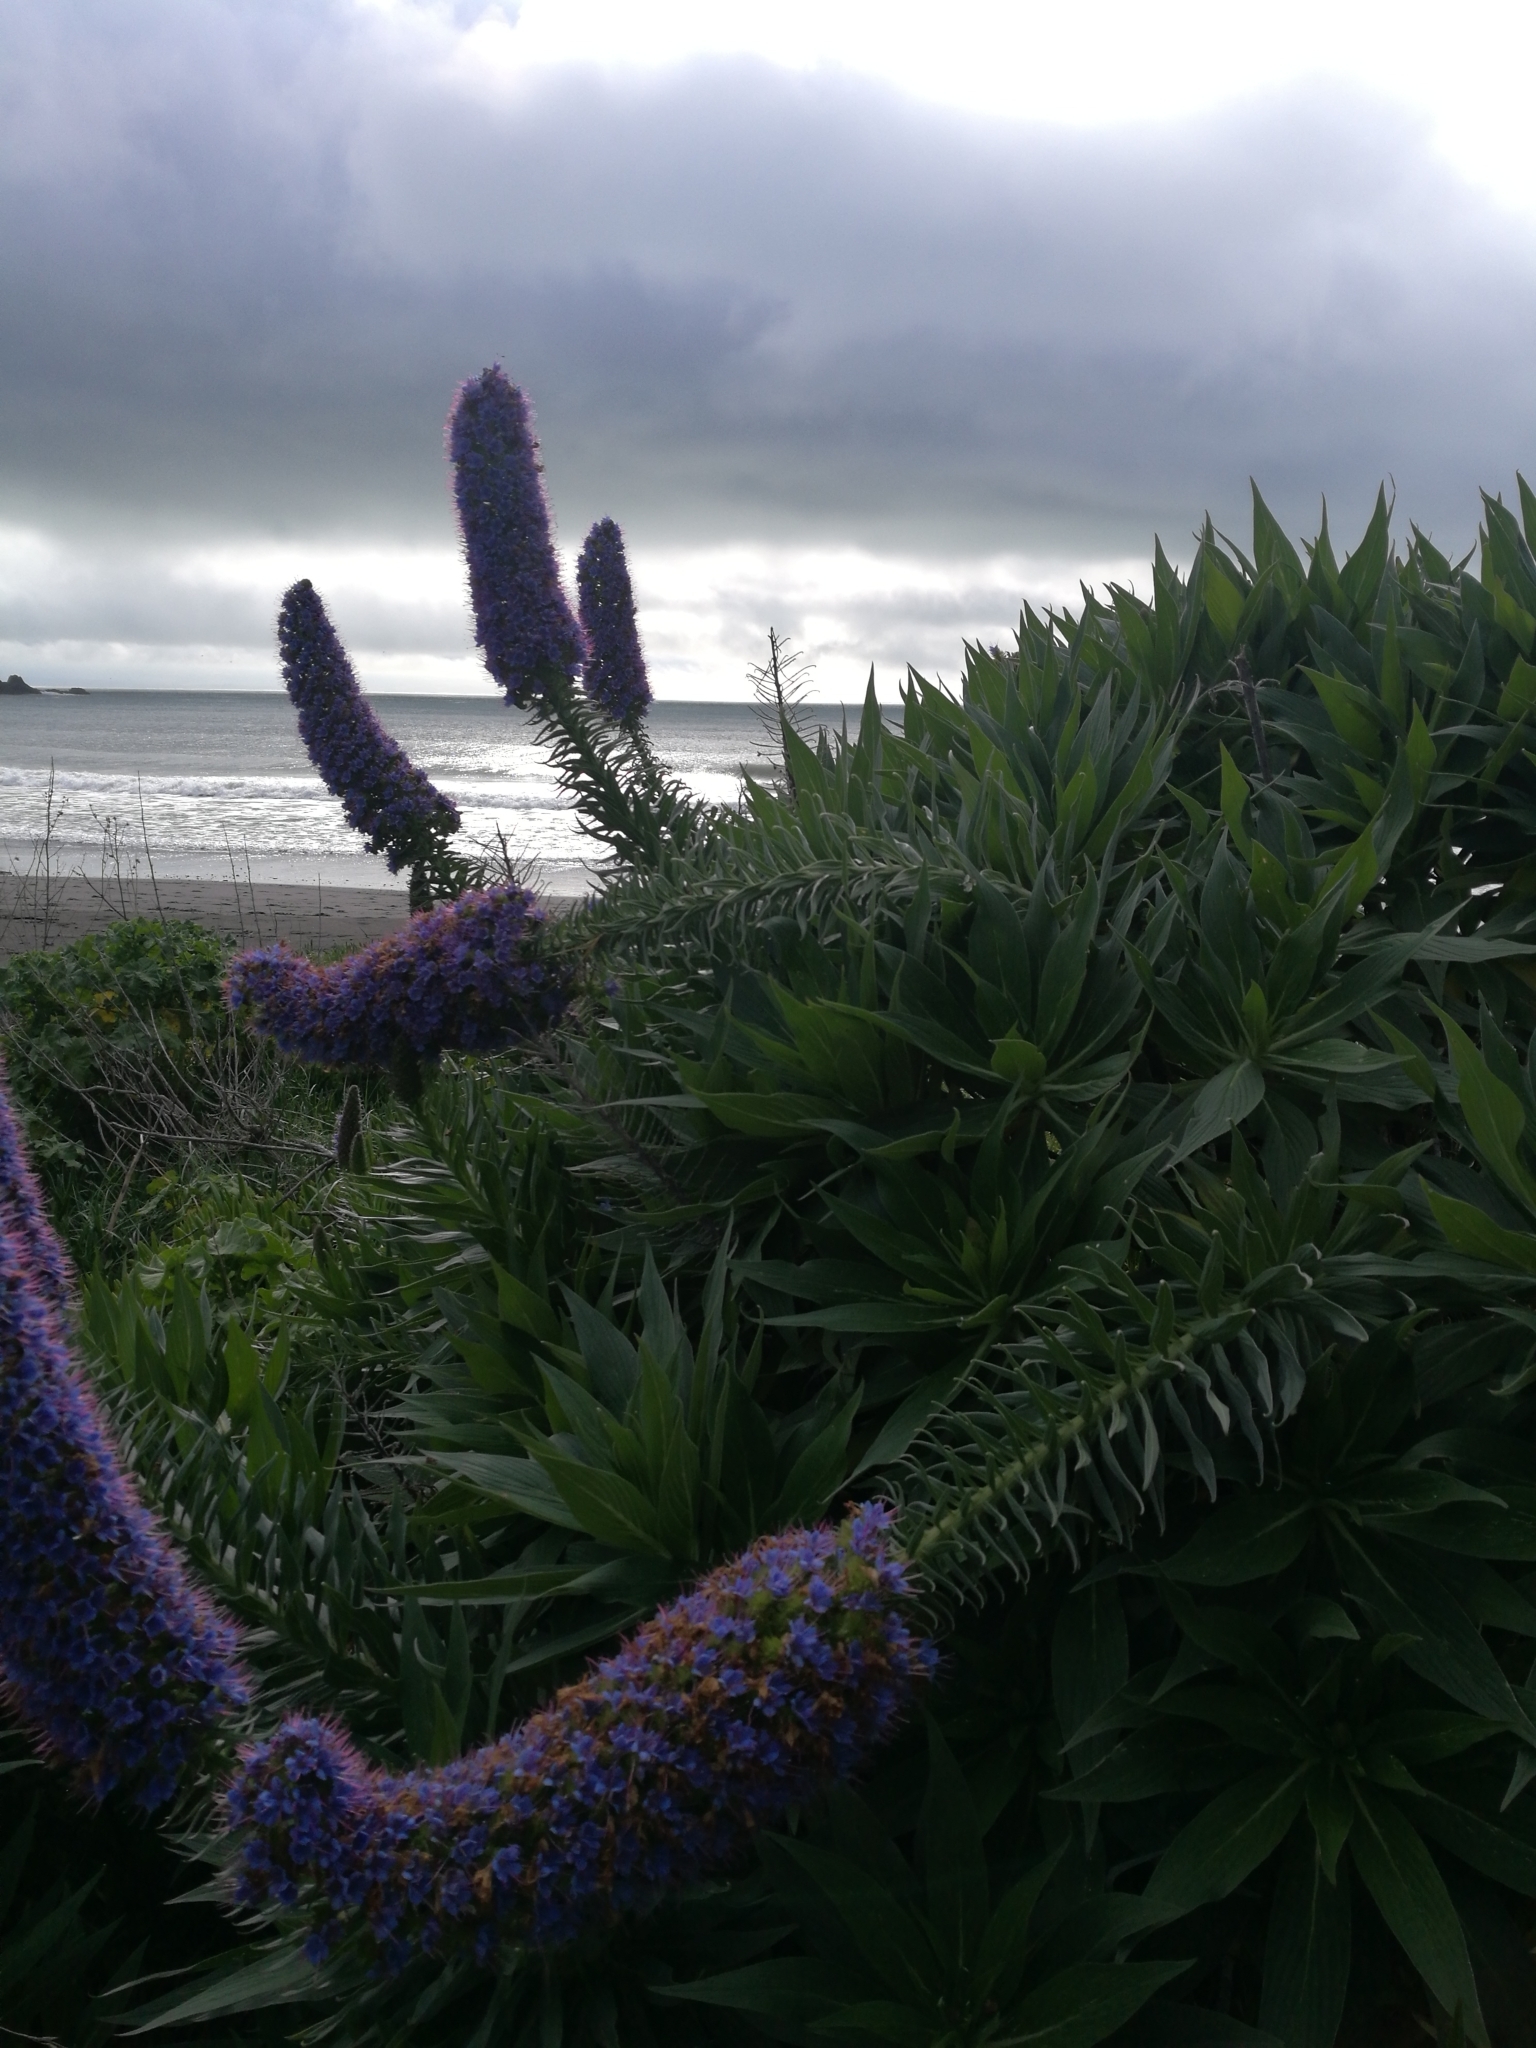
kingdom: Plantae
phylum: Tracheophyta
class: Magnoliopsida
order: Boraginales
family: Boraginaceae
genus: Echium
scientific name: Echium candicans
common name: Pride of madeira
